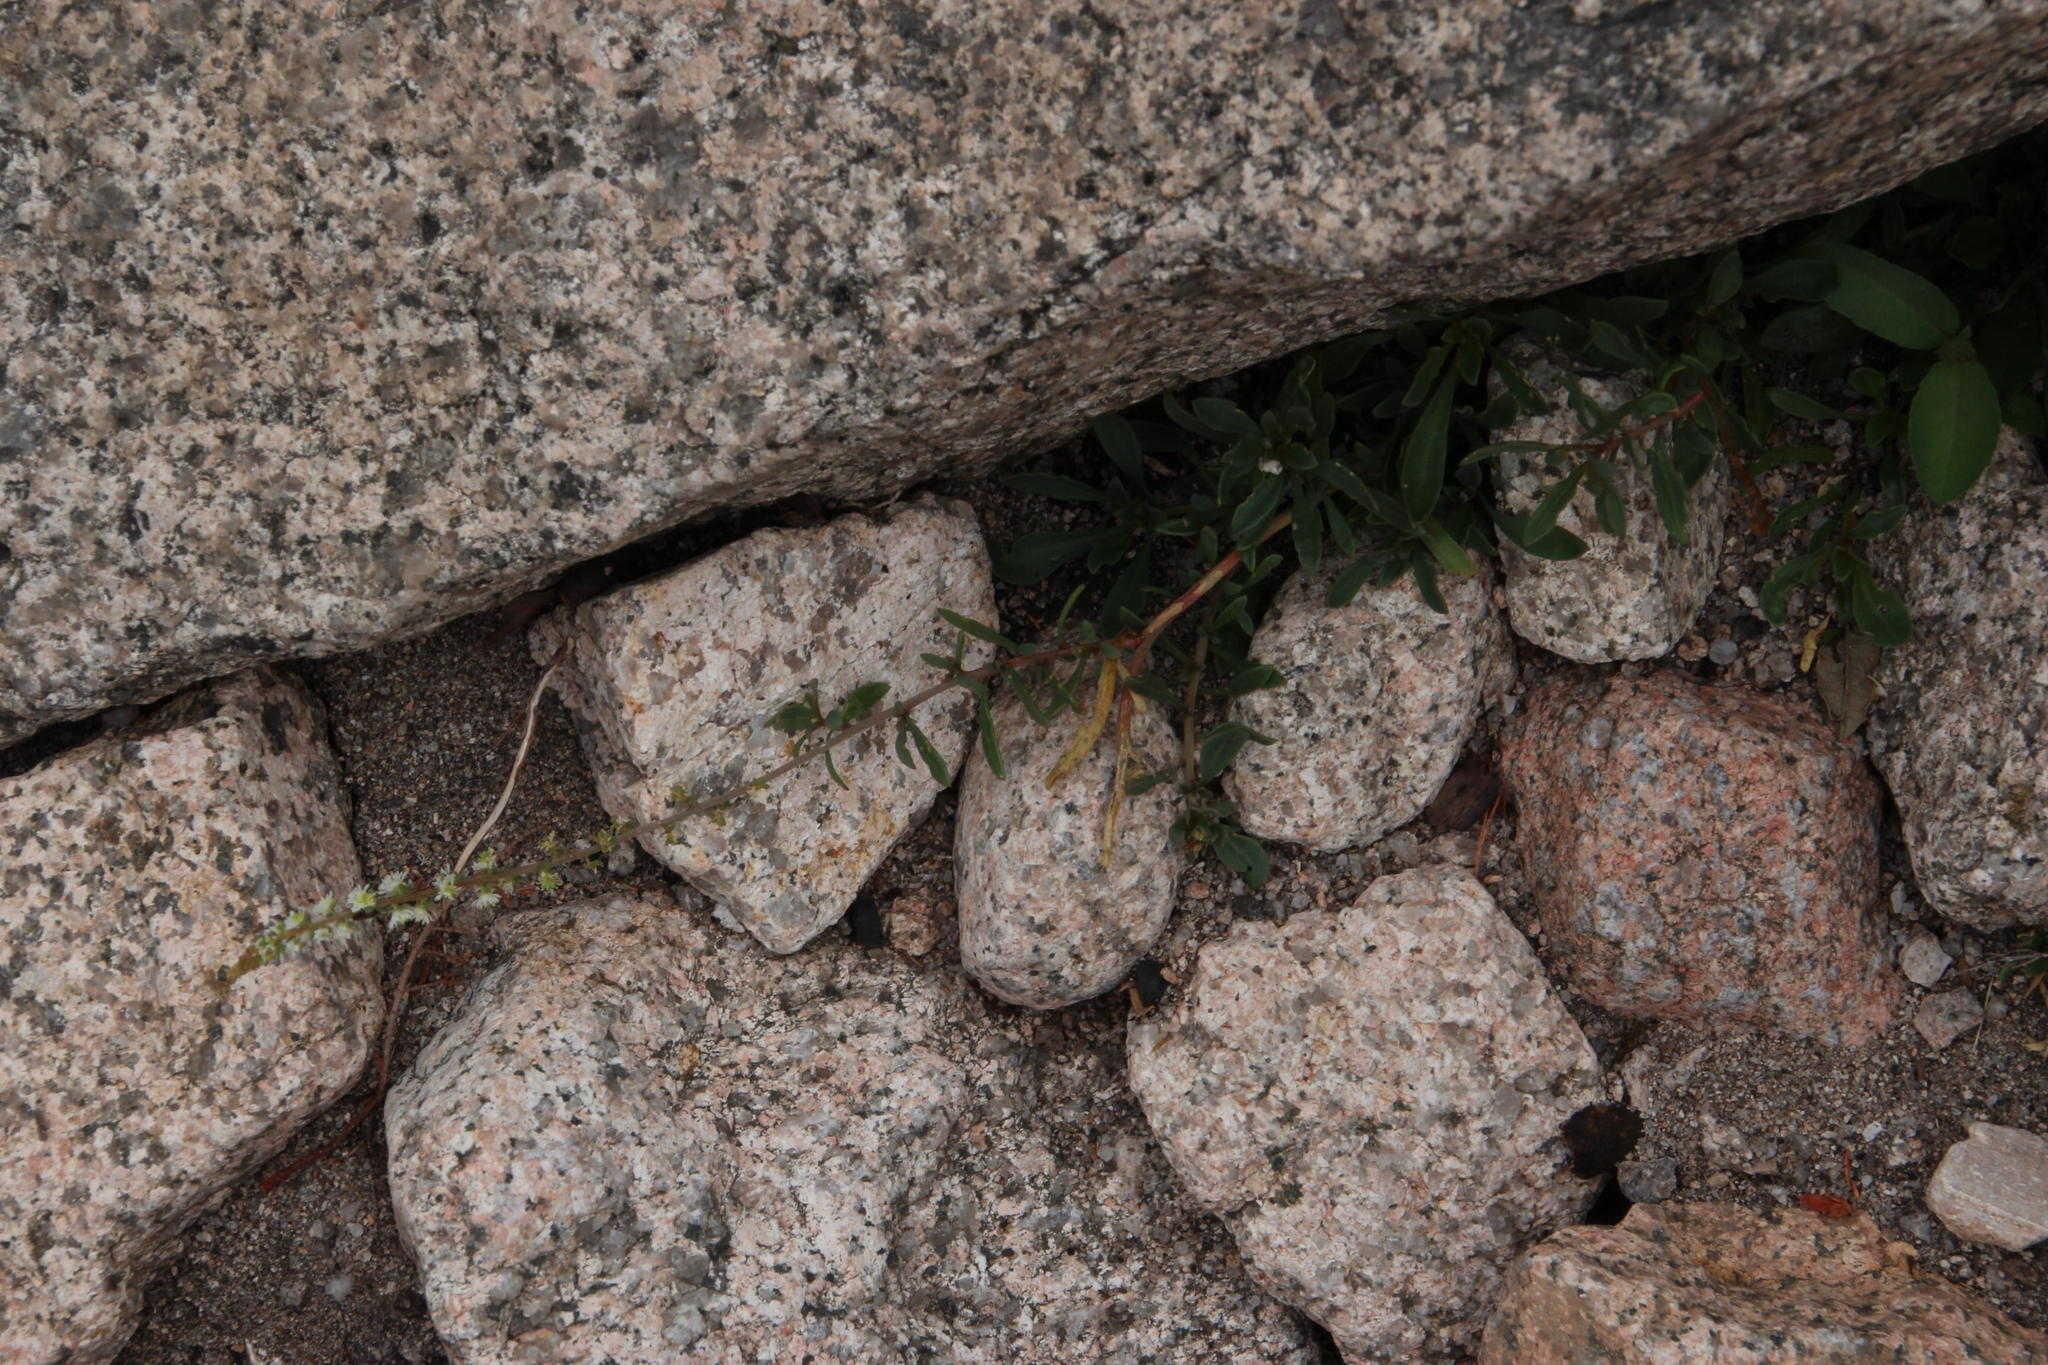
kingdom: Plantae
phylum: Tracheophyta
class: Magnoliopsida
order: Brassicales
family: Resedaceae
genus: Sesamoides
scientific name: Sesamoides purpurascens
